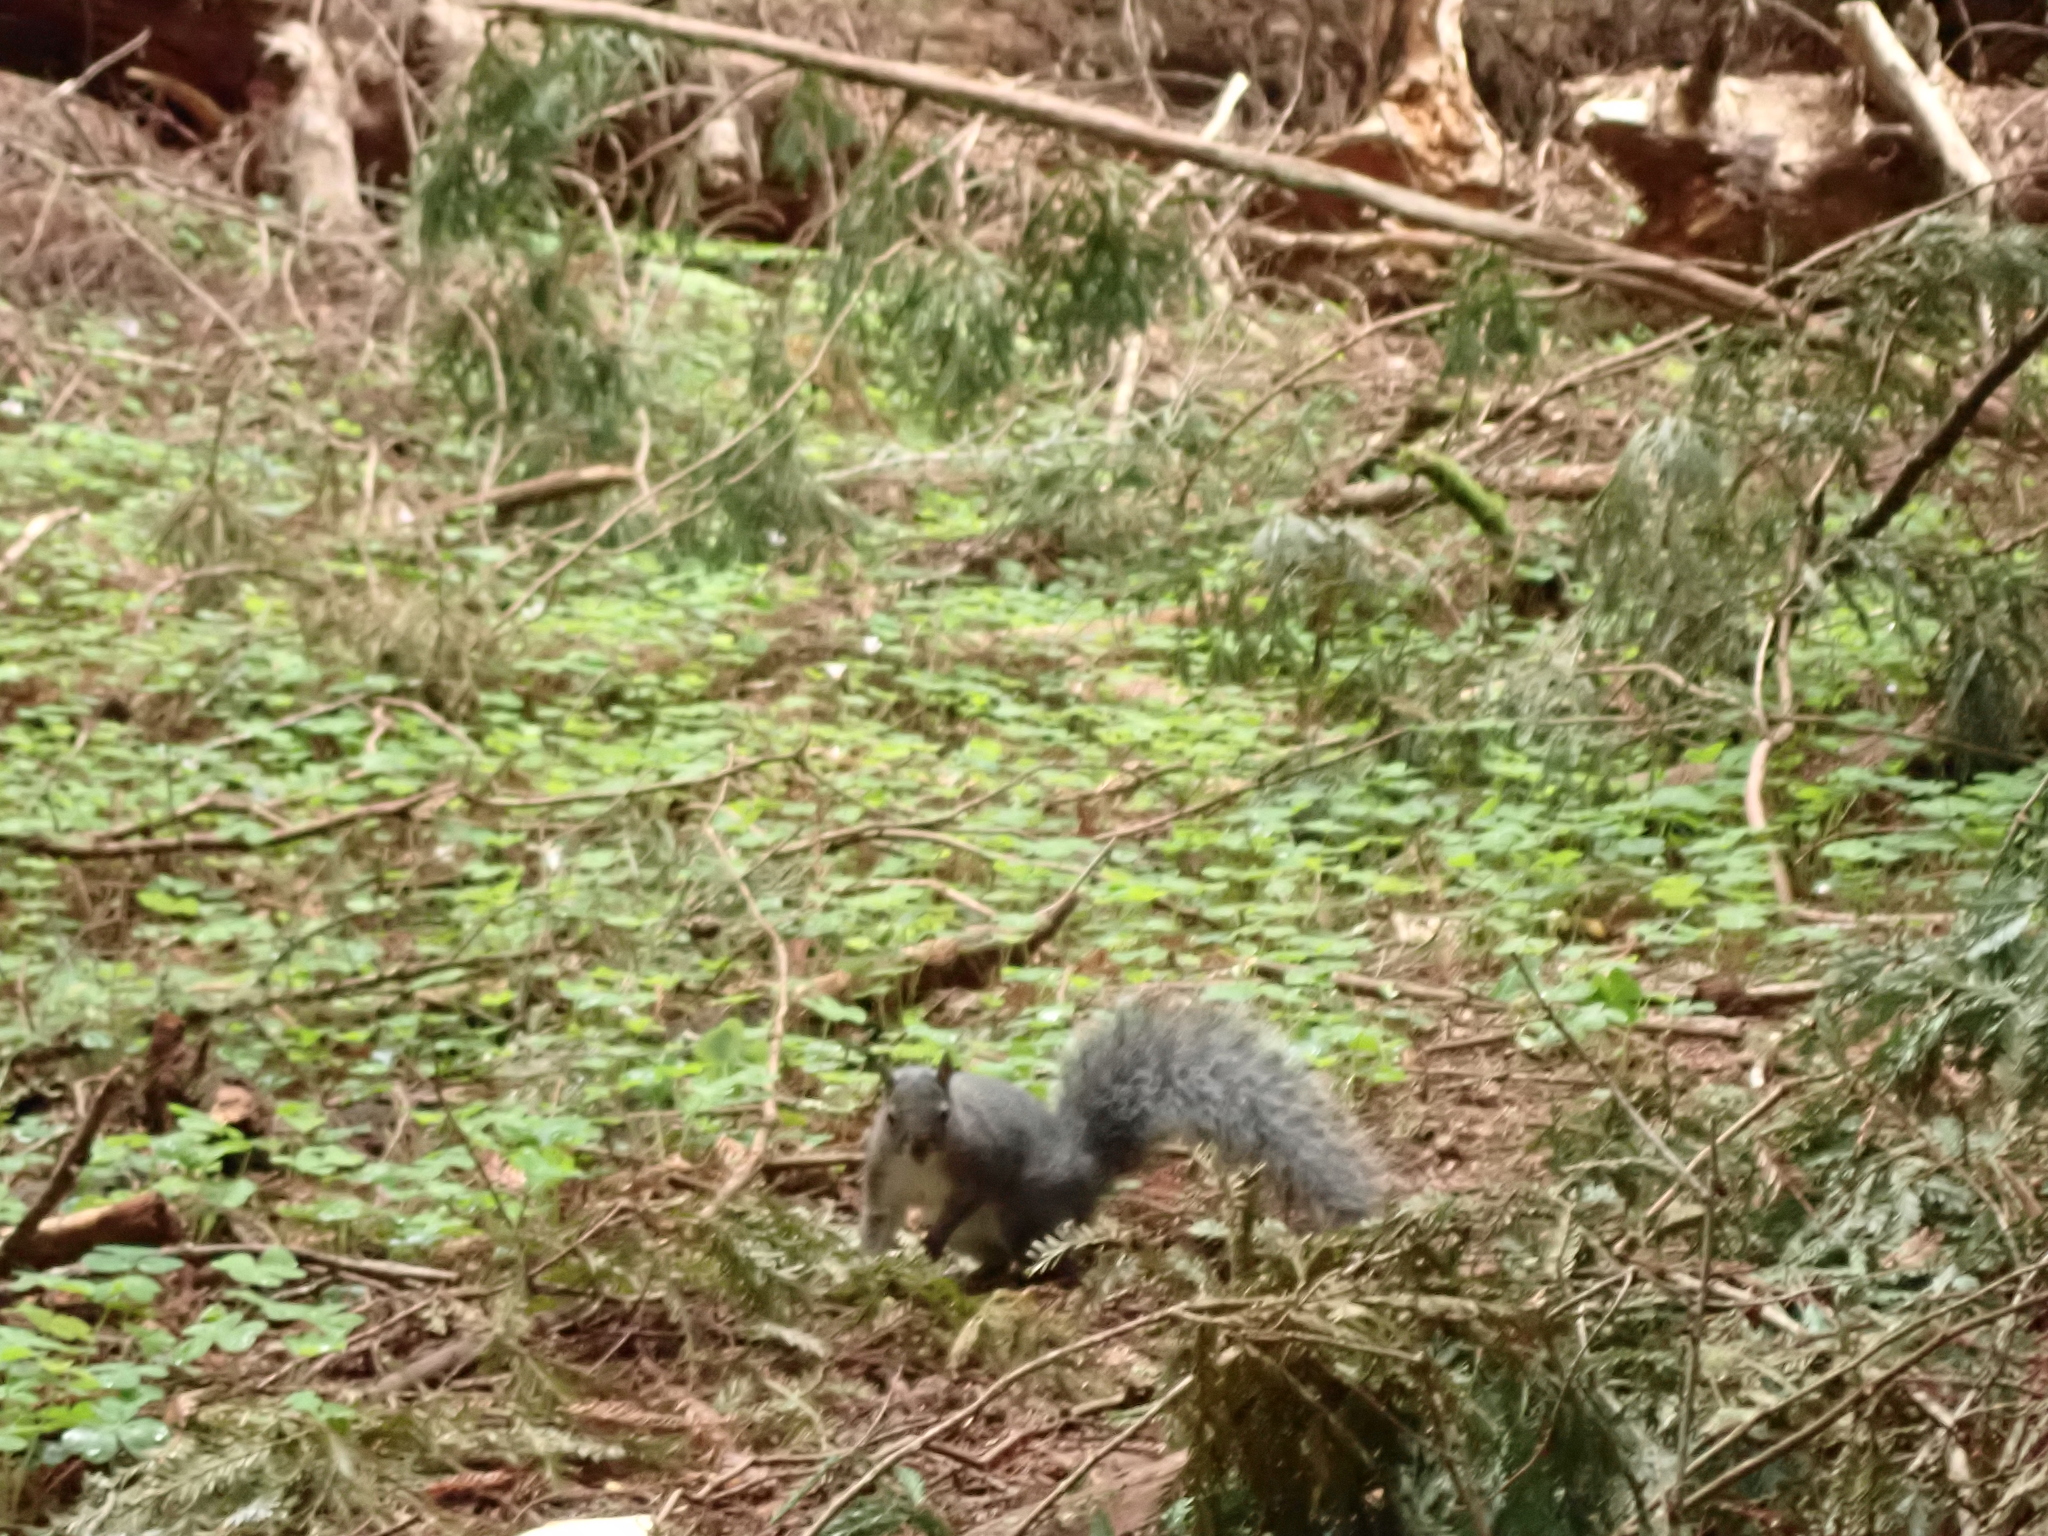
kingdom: Animalia
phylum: Chordata
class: Mammalia
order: Rodentia
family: Sciuridae
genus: Sciurus
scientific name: Sciurus griseus
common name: Western gray squirrel
